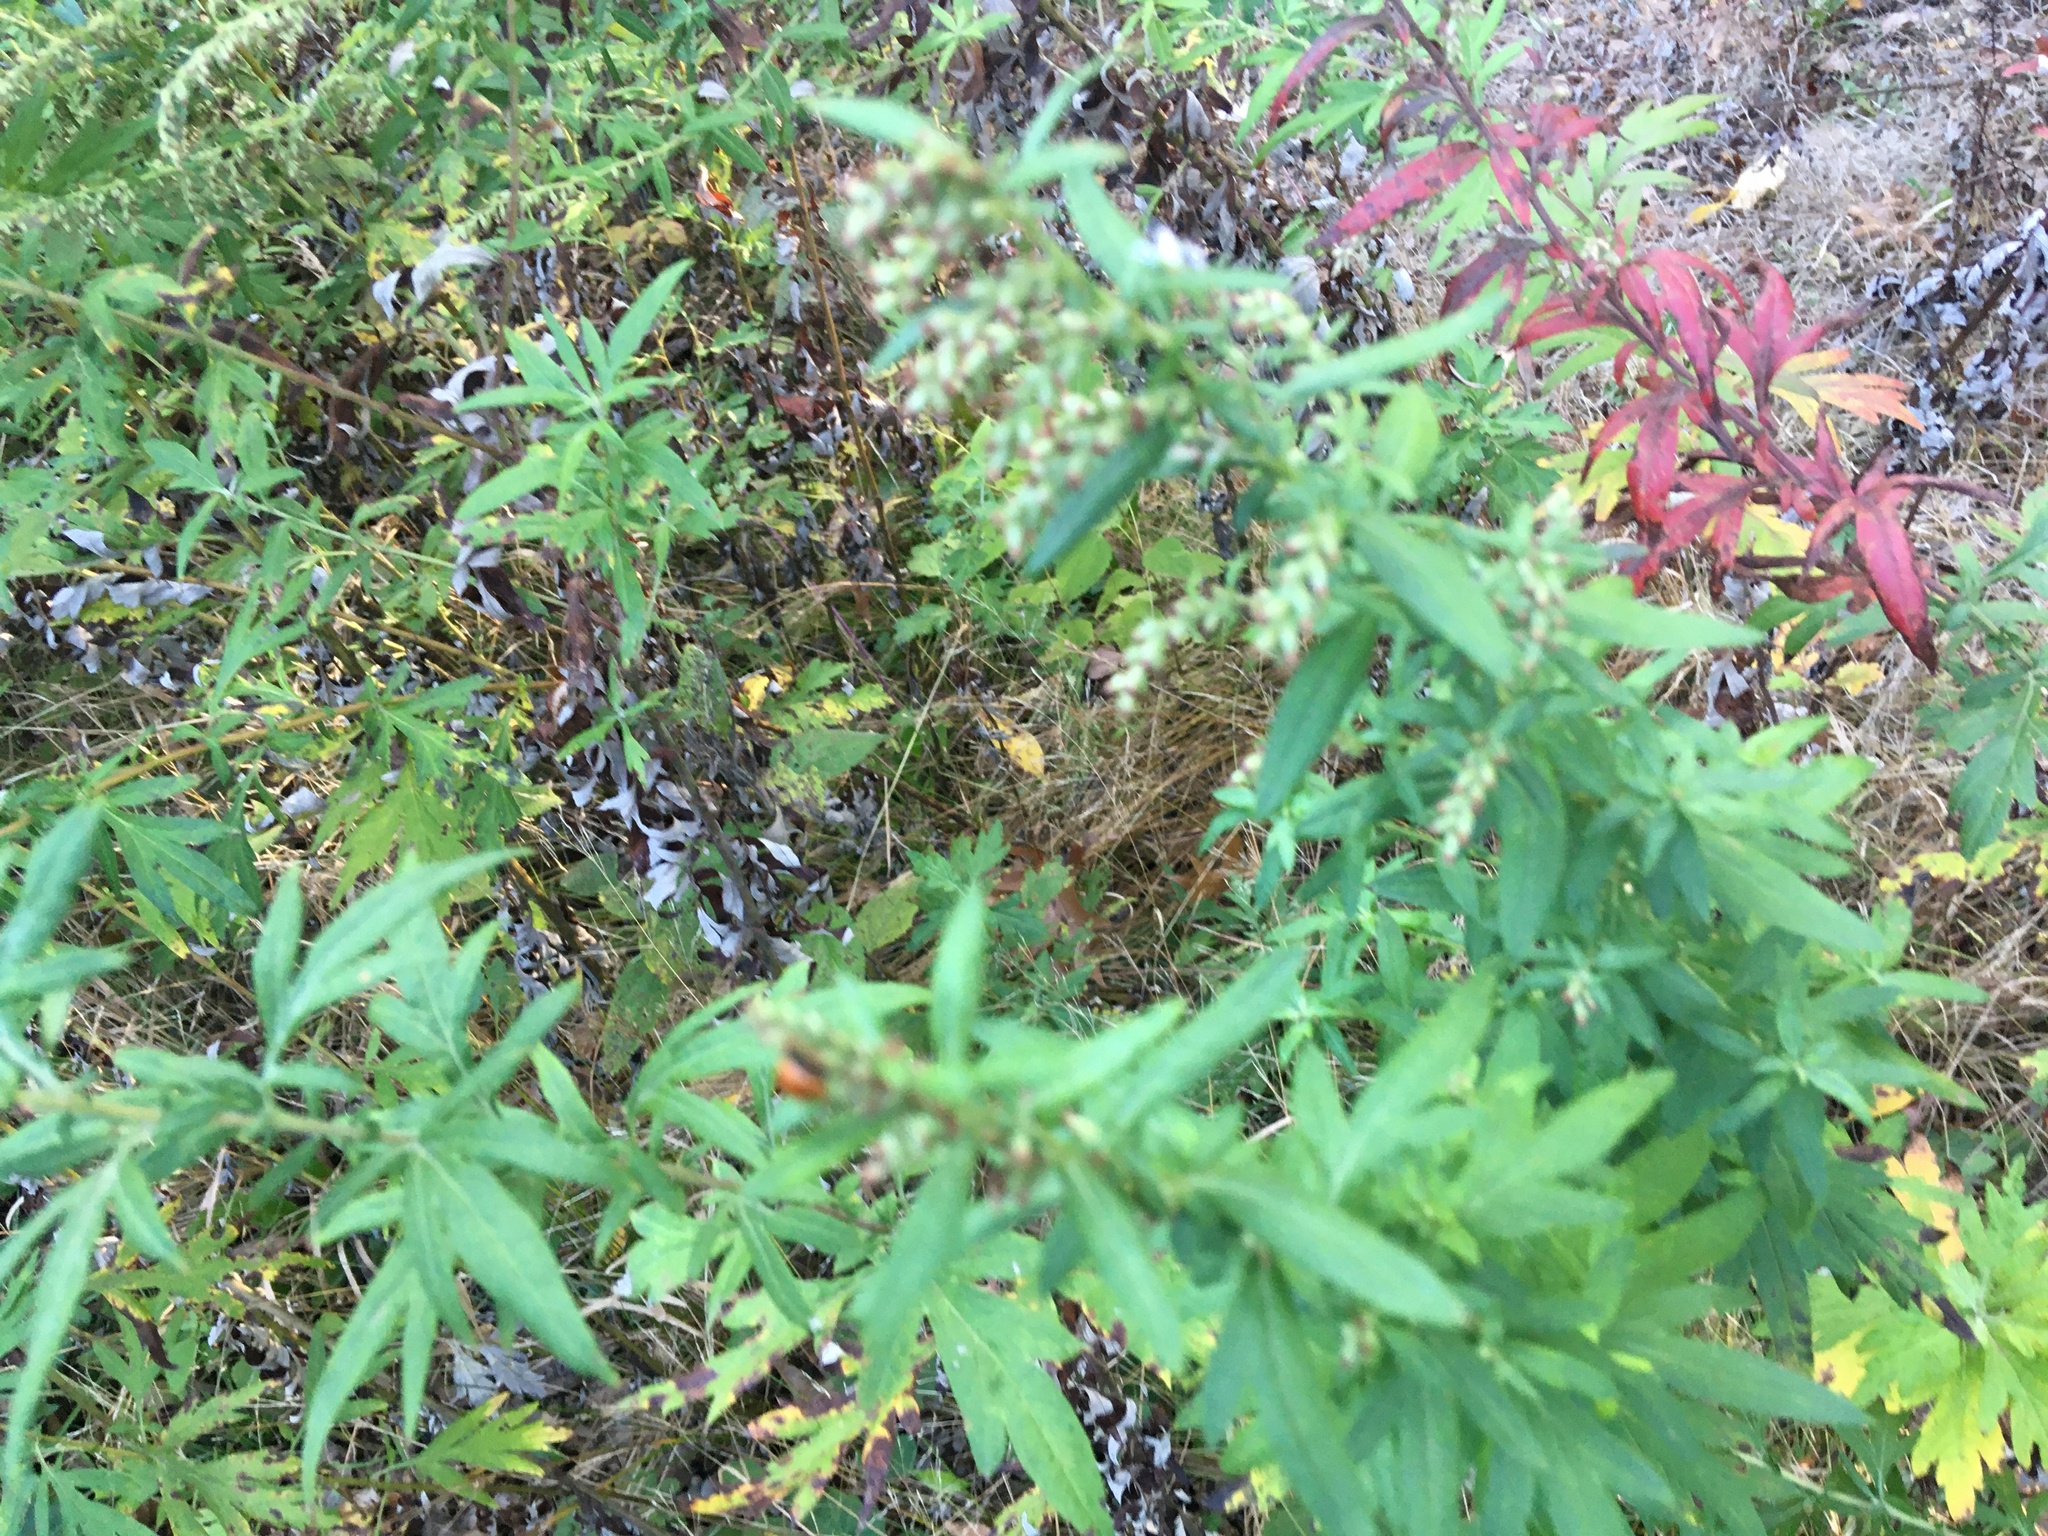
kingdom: Plantae
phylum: Tracheophyta
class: Magnoliopsida
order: Asterales
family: Asteraceae
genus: Artemisia
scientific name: Artemisia vulgaris
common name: Mugwort
